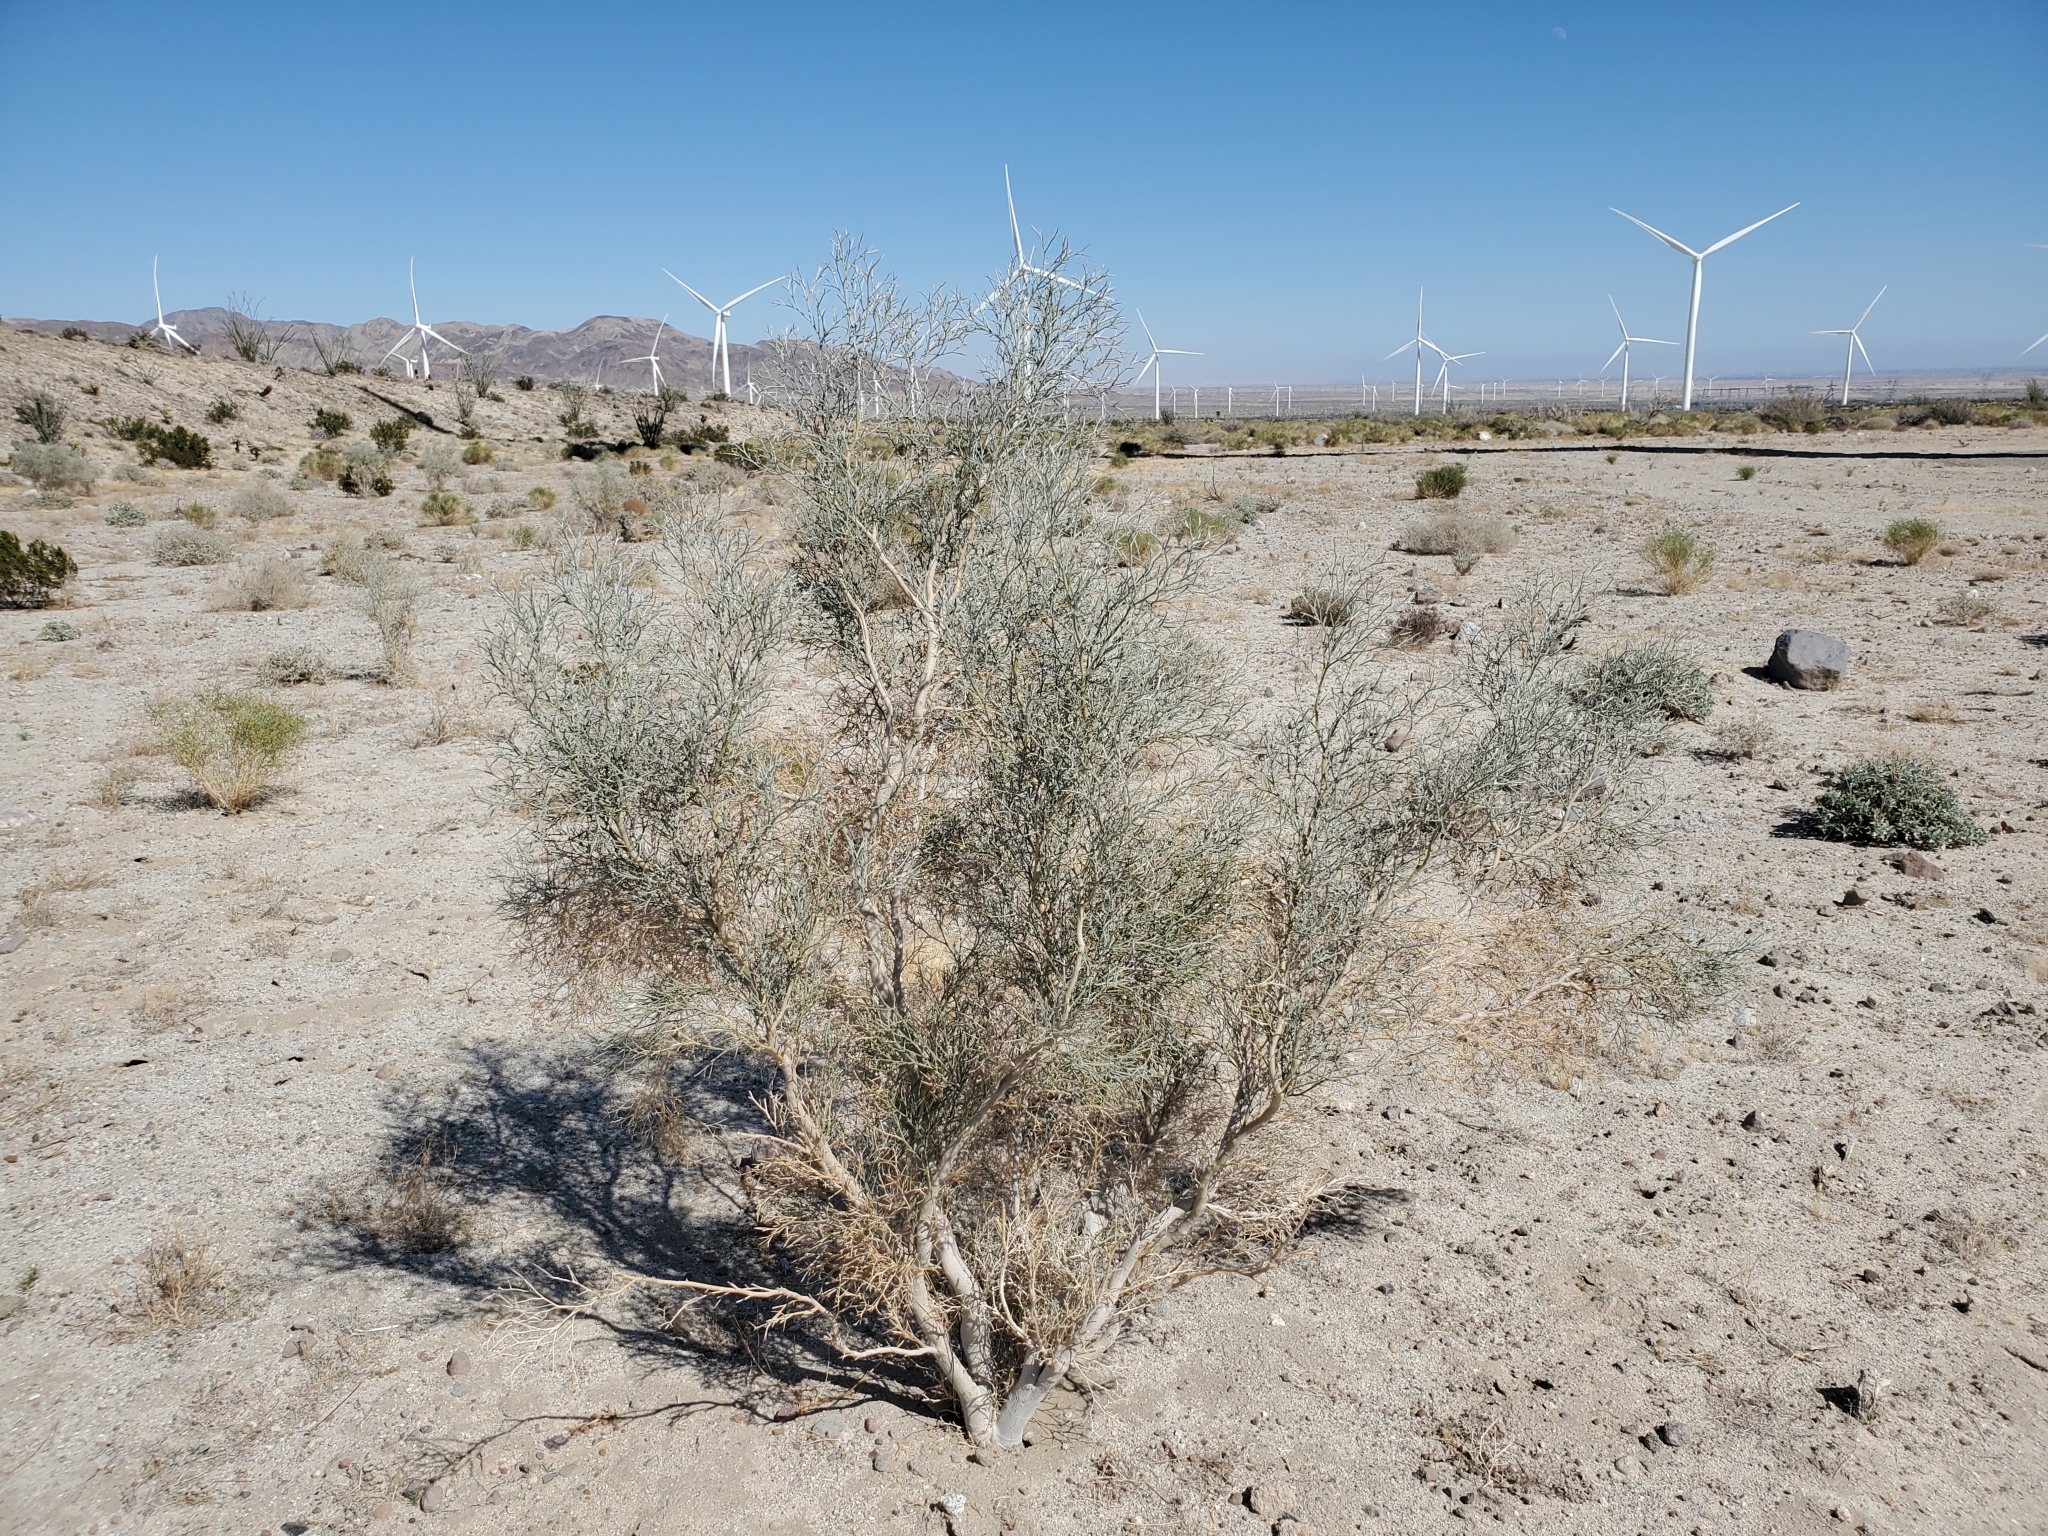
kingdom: Plantae
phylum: Tracheophyta
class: Magnoliopsida
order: Fabales
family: Fabaceae
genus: Psorothamnus
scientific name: Psorothamnus spinosus
